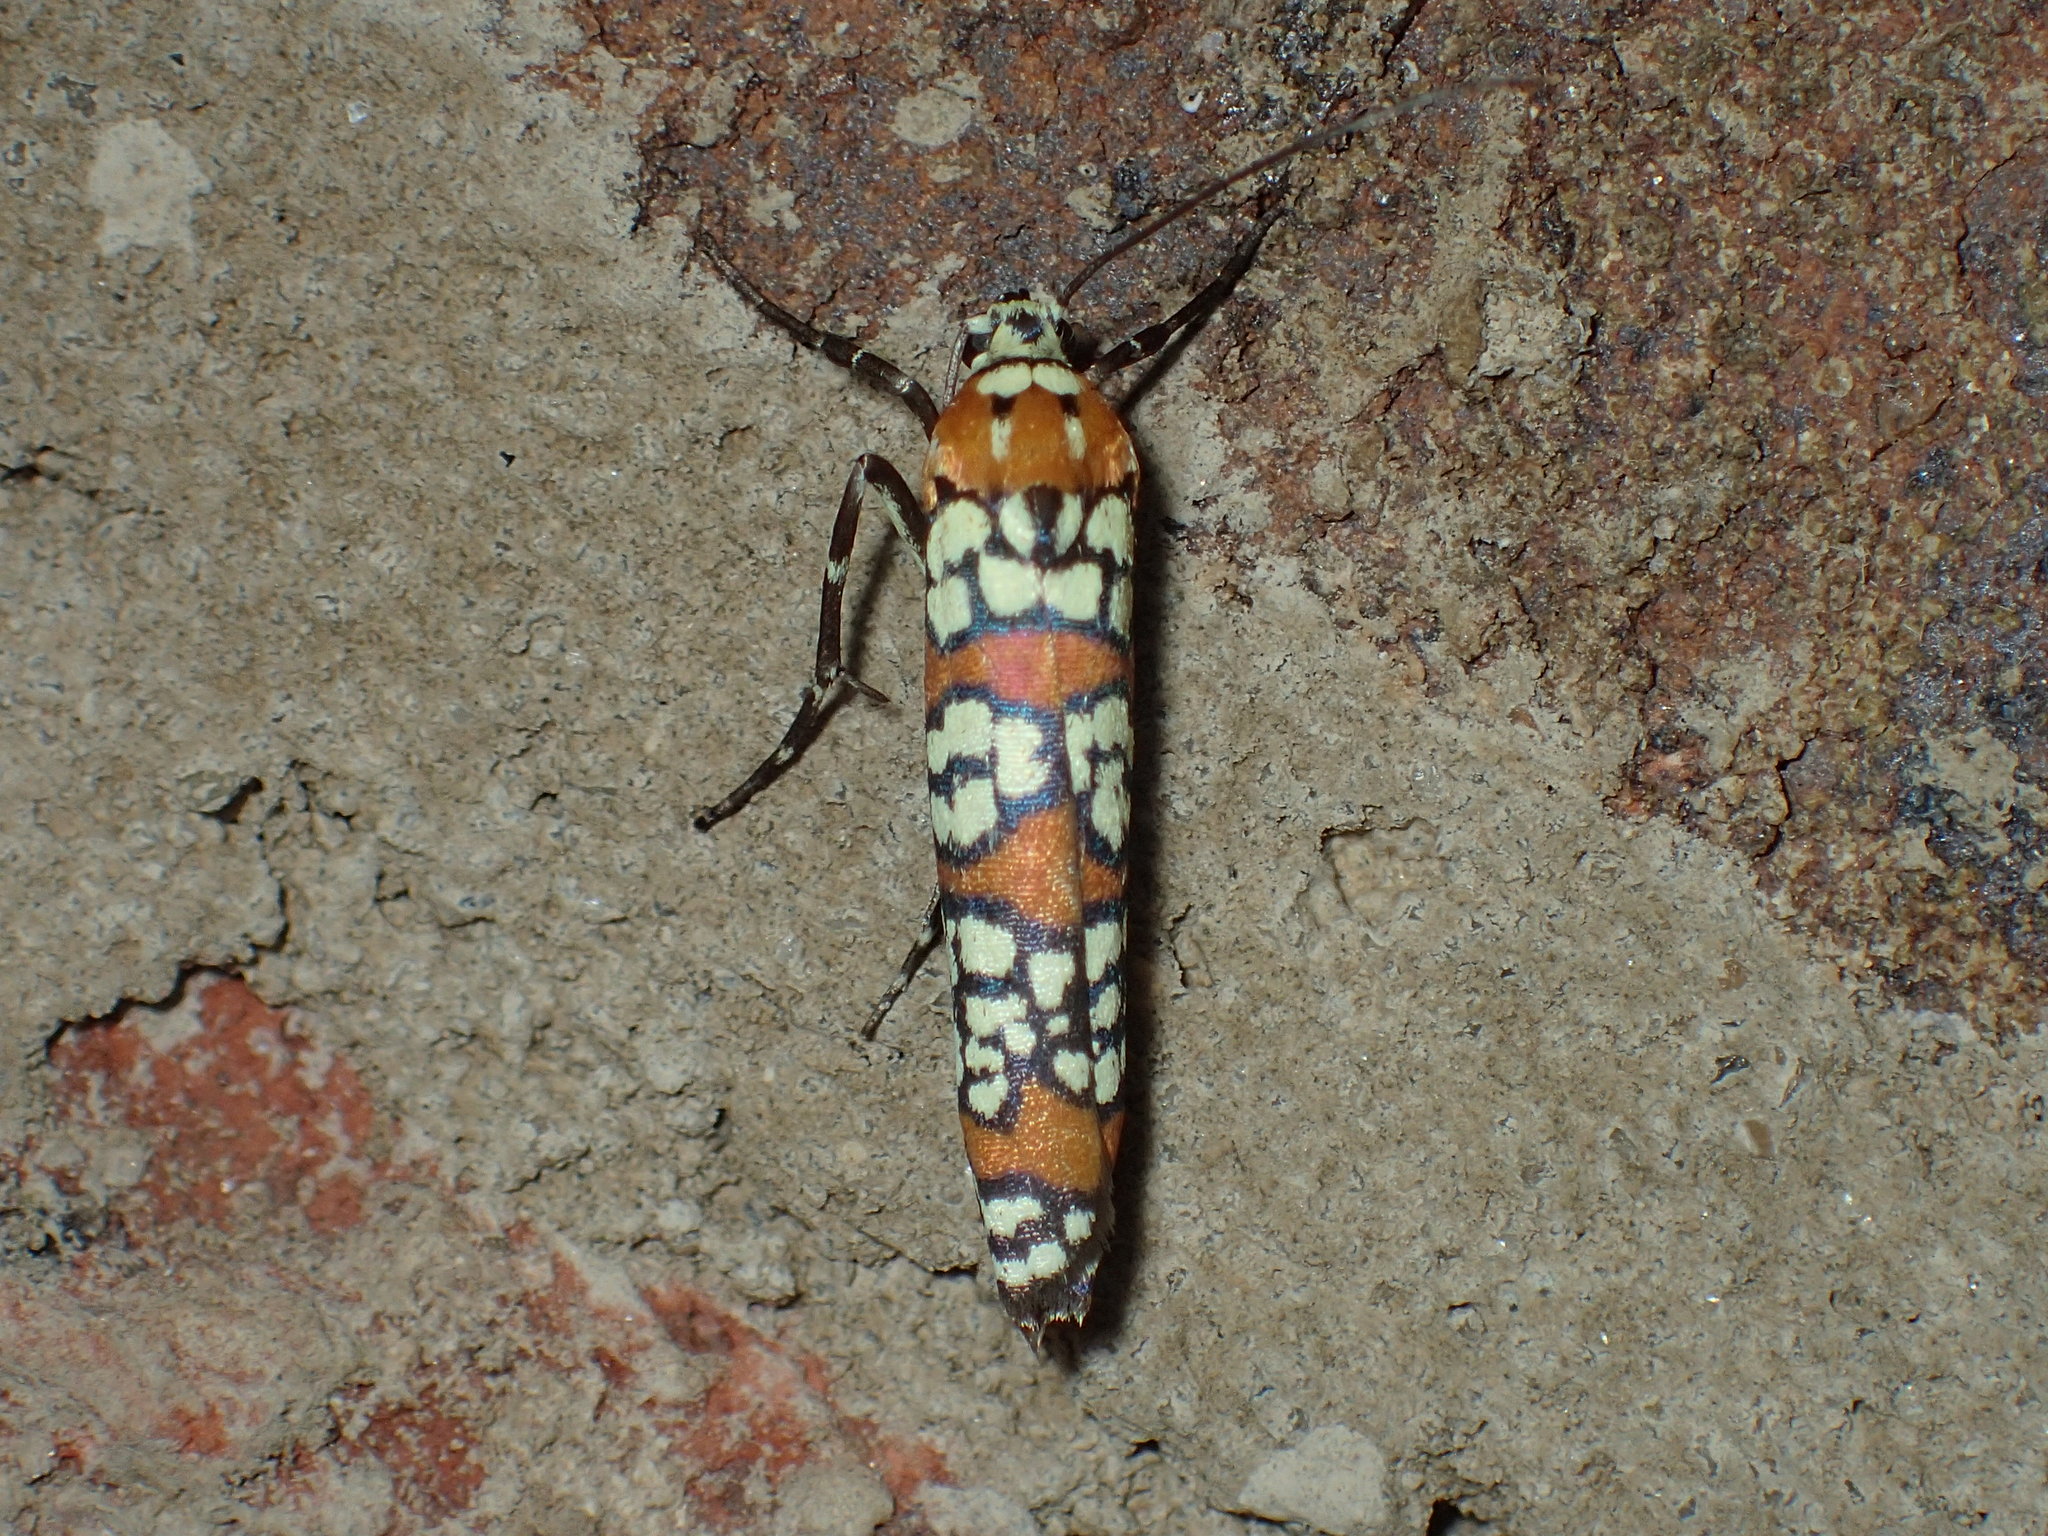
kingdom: Animalia
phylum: Arthropoda
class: Insecta
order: Lepidoptera
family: Attevidae
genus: Atteva
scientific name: Atteva punctella
